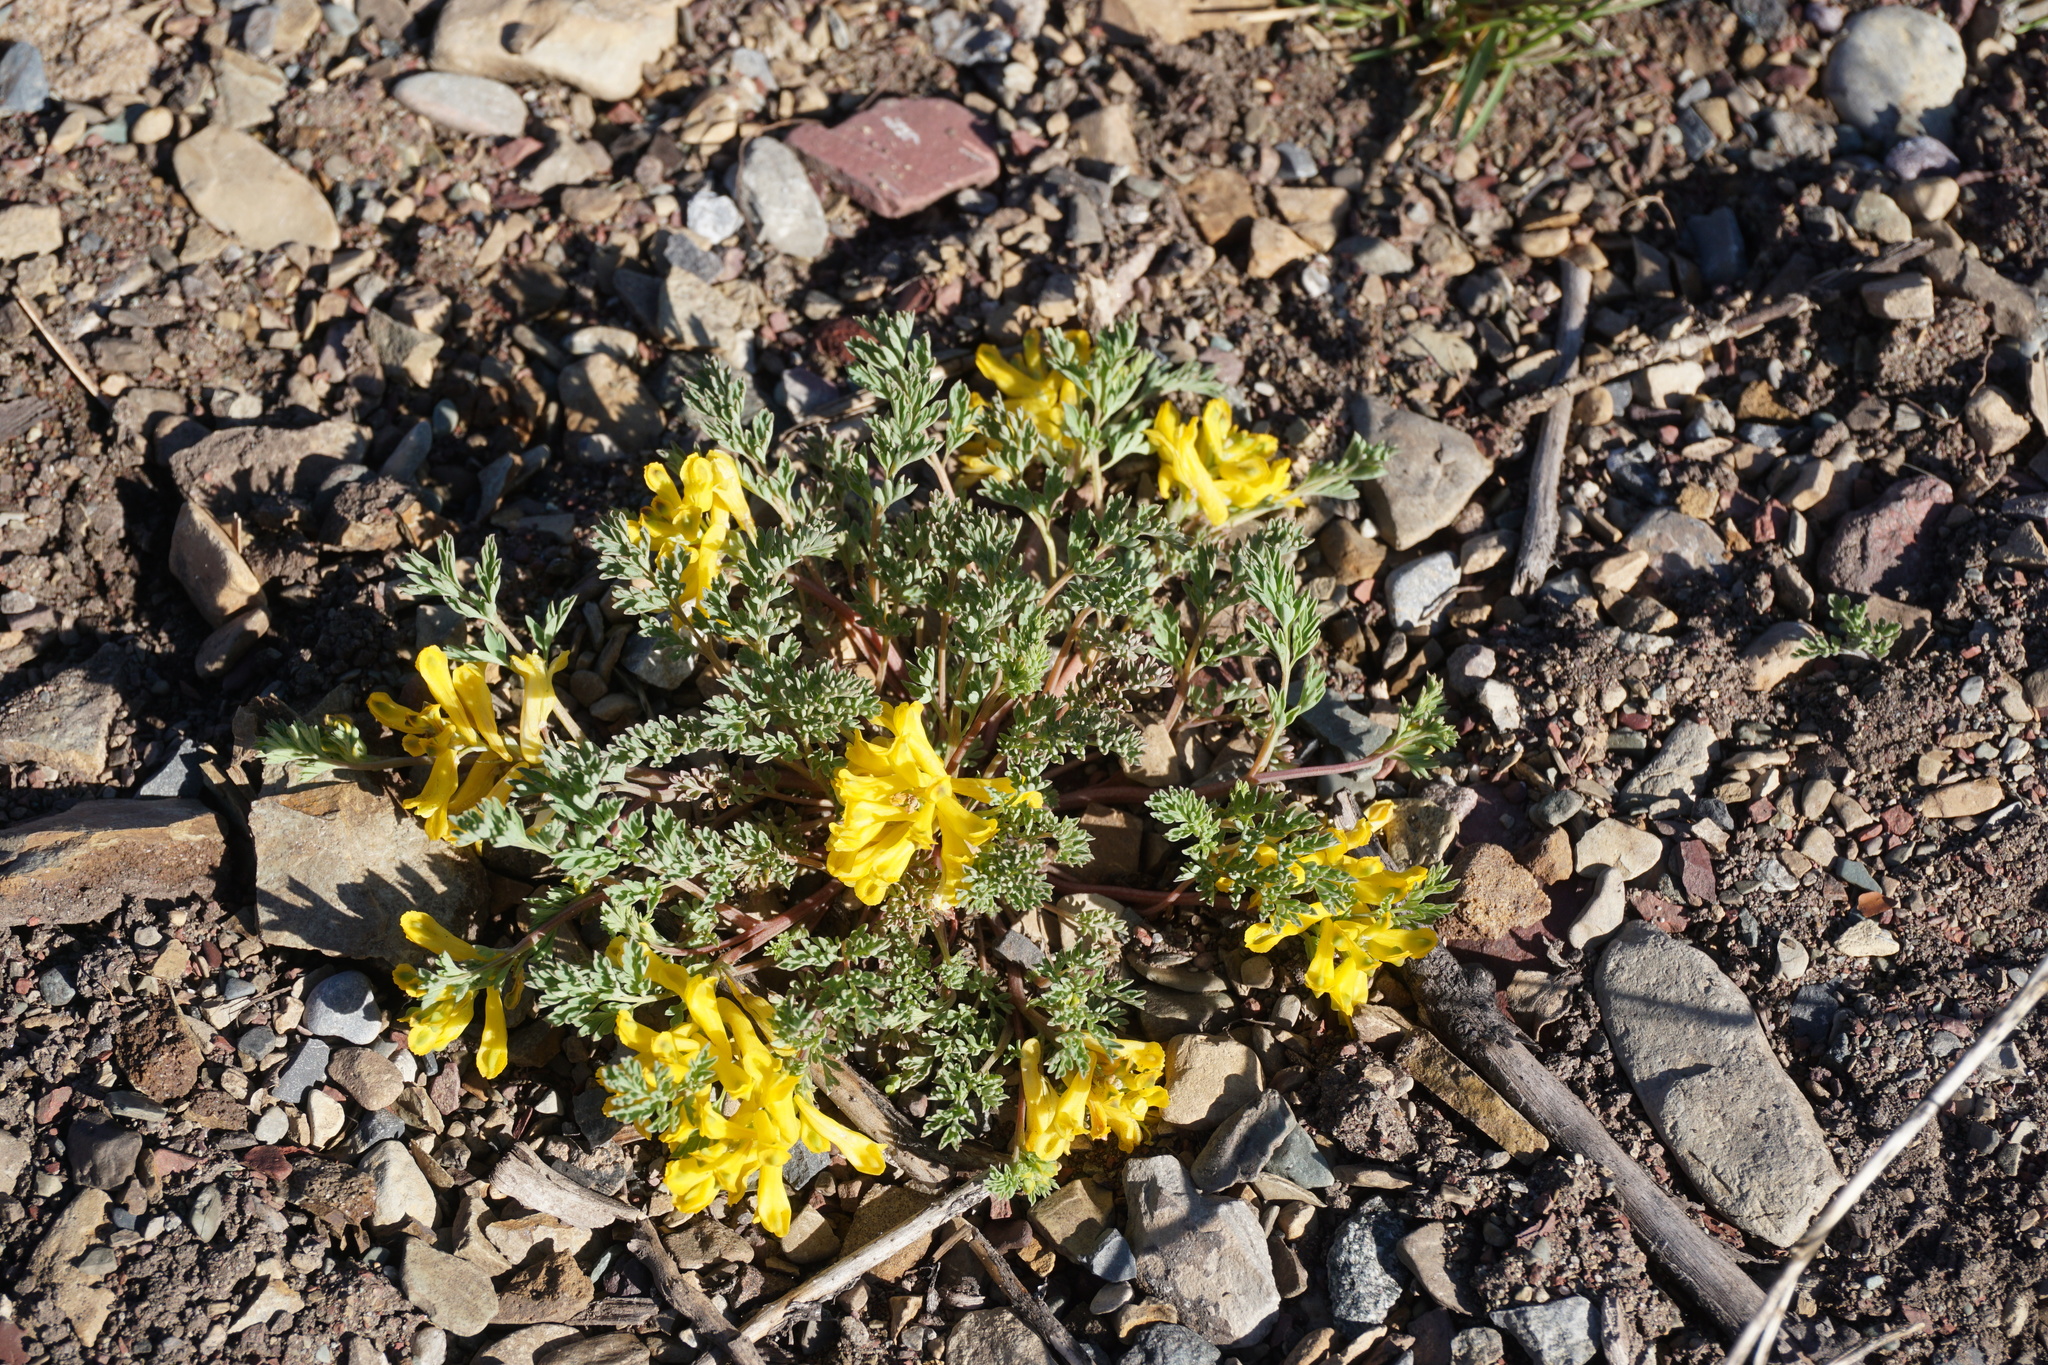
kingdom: Plantae
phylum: Tracheophyta
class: Magnoliopsida
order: Ranunculales
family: Papaveraceae
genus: Corydalis
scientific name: Corydalis aurea
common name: Golden corydalis
